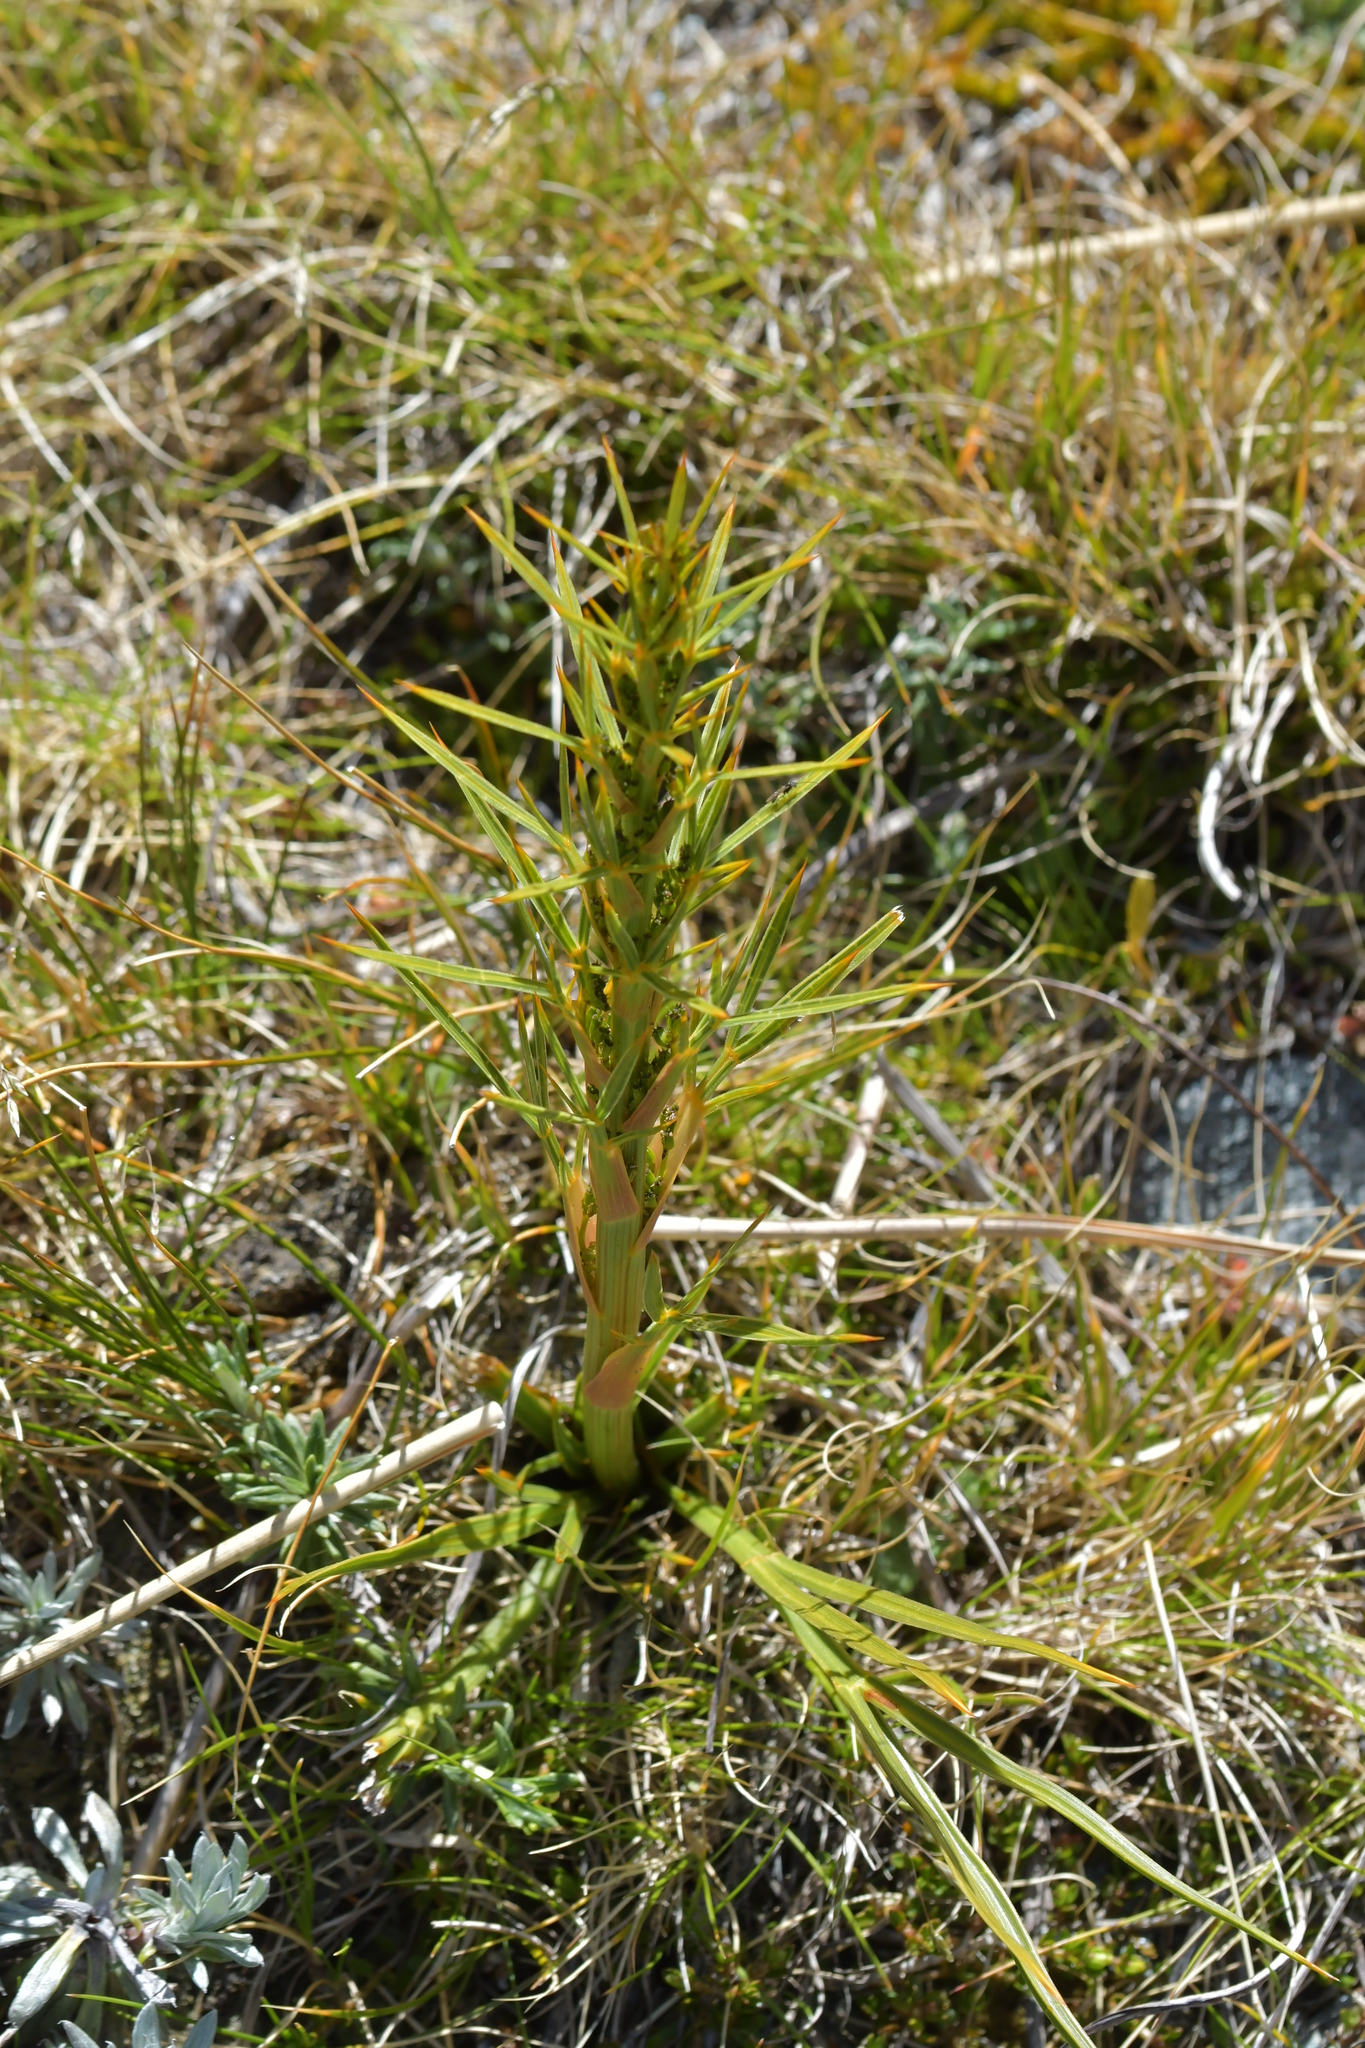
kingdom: Plantae
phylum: Tracheophyta
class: Magnoliopsida
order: Apiales
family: Apiaceae
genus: Aciphylla
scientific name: Aciphylla crenulata
